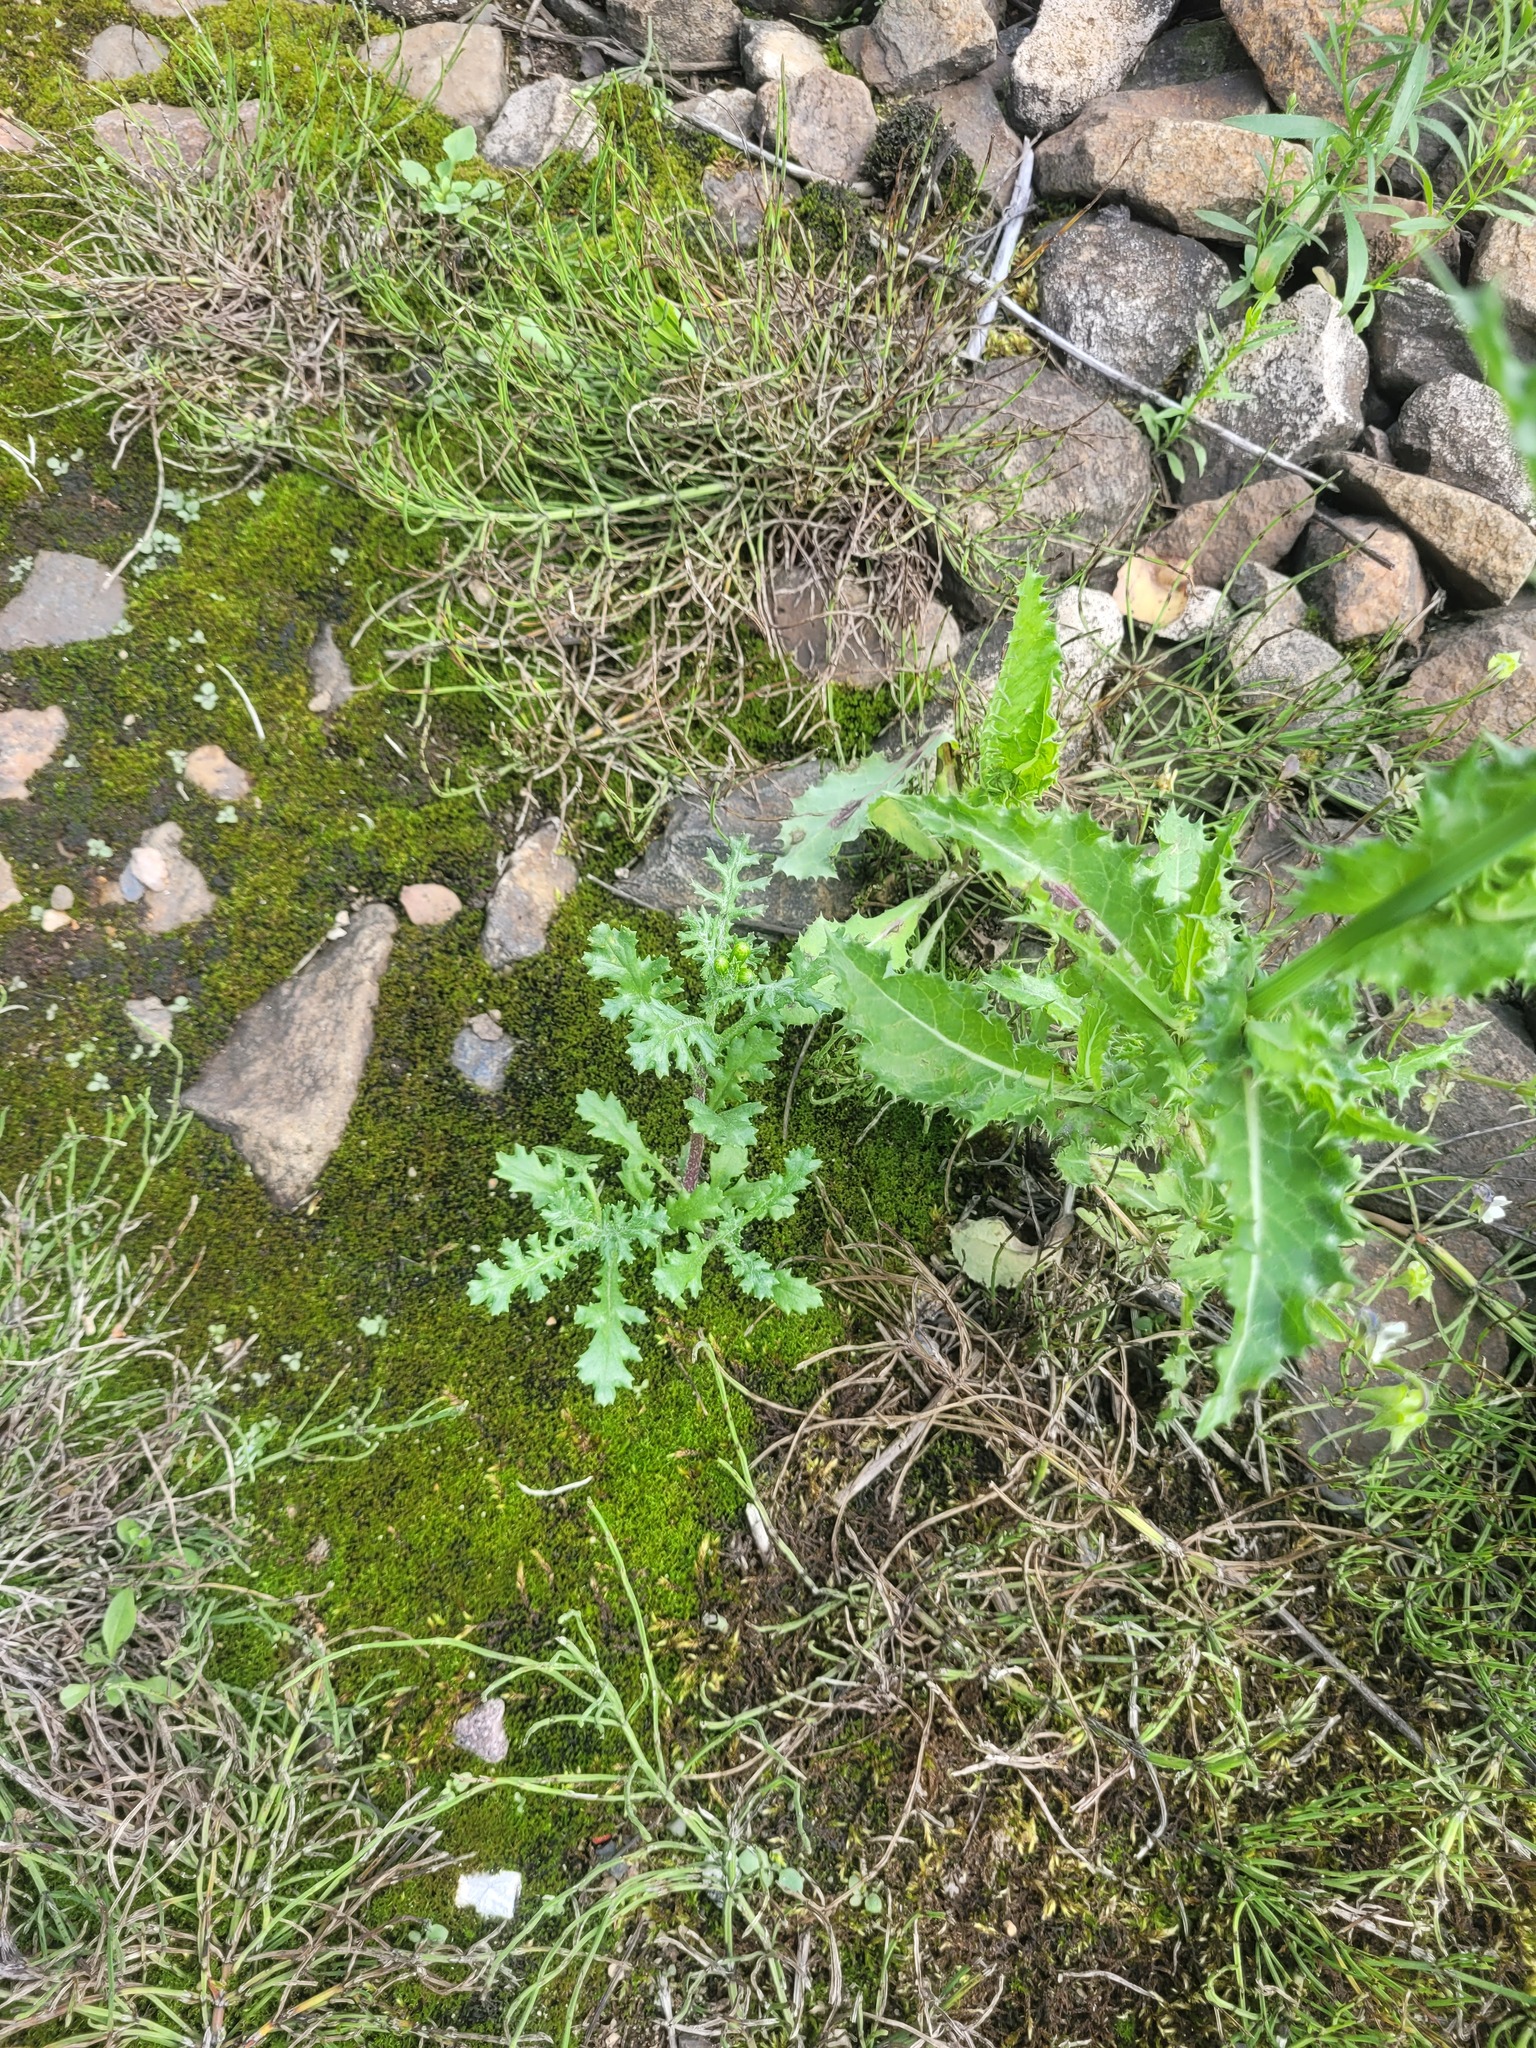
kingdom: Plantae
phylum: Tracheophyta
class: Magnoliopsida
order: Asterales
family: Asteraceae
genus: Senecio
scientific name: Senecio vulgaris
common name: Old-man-in-the-spring
